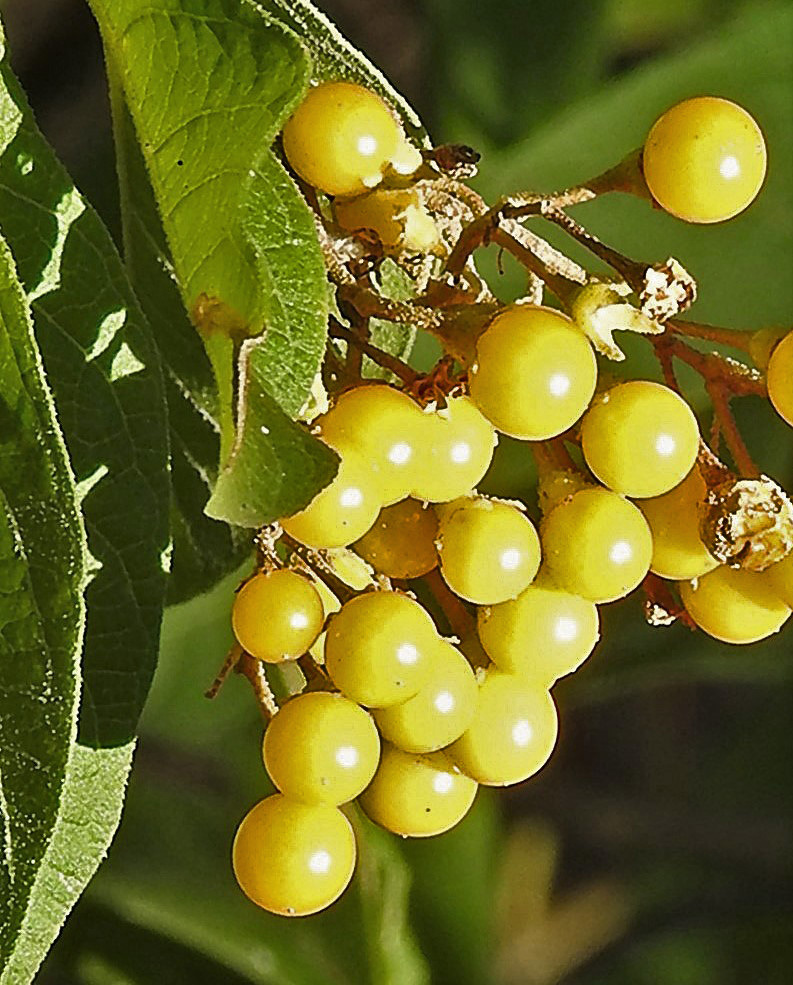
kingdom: Plantae
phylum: Tracheophyta
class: Magnoliopsida
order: Solanales
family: Solanaceae
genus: Solanum
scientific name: Solanum argentinum
